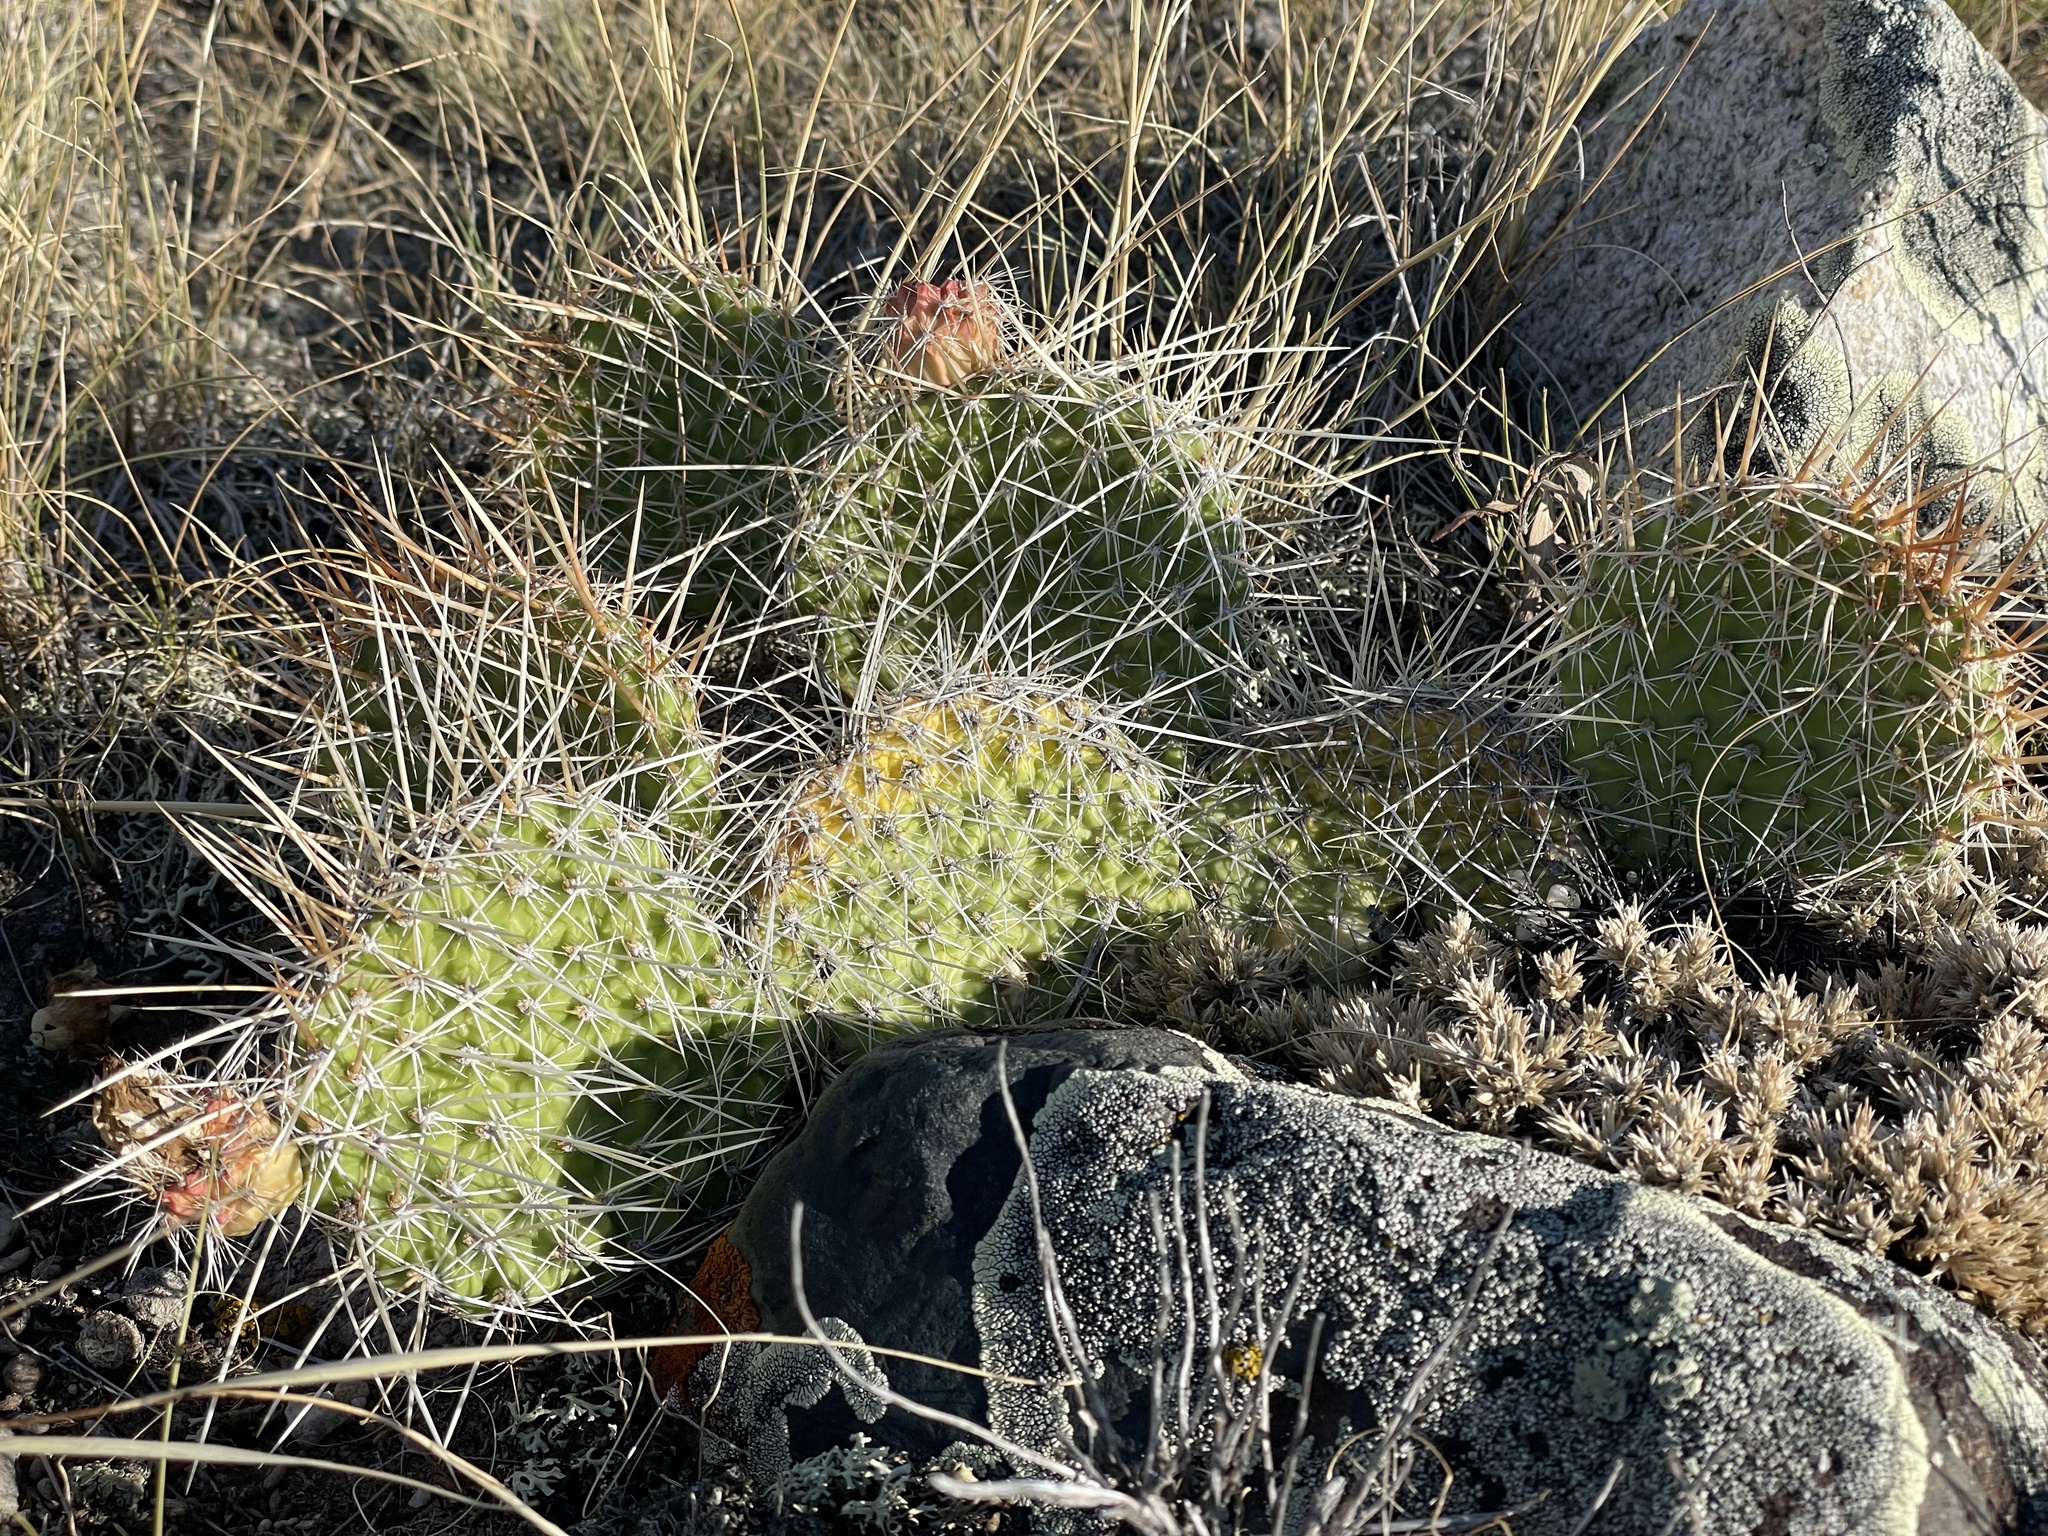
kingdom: Plantae
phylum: Tracheophyta
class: Magnoliopsida
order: Caryophyllales
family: Cactaceae
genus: Opuntia
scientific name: Opuntia polyacantha
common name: Plains prickly-pear
